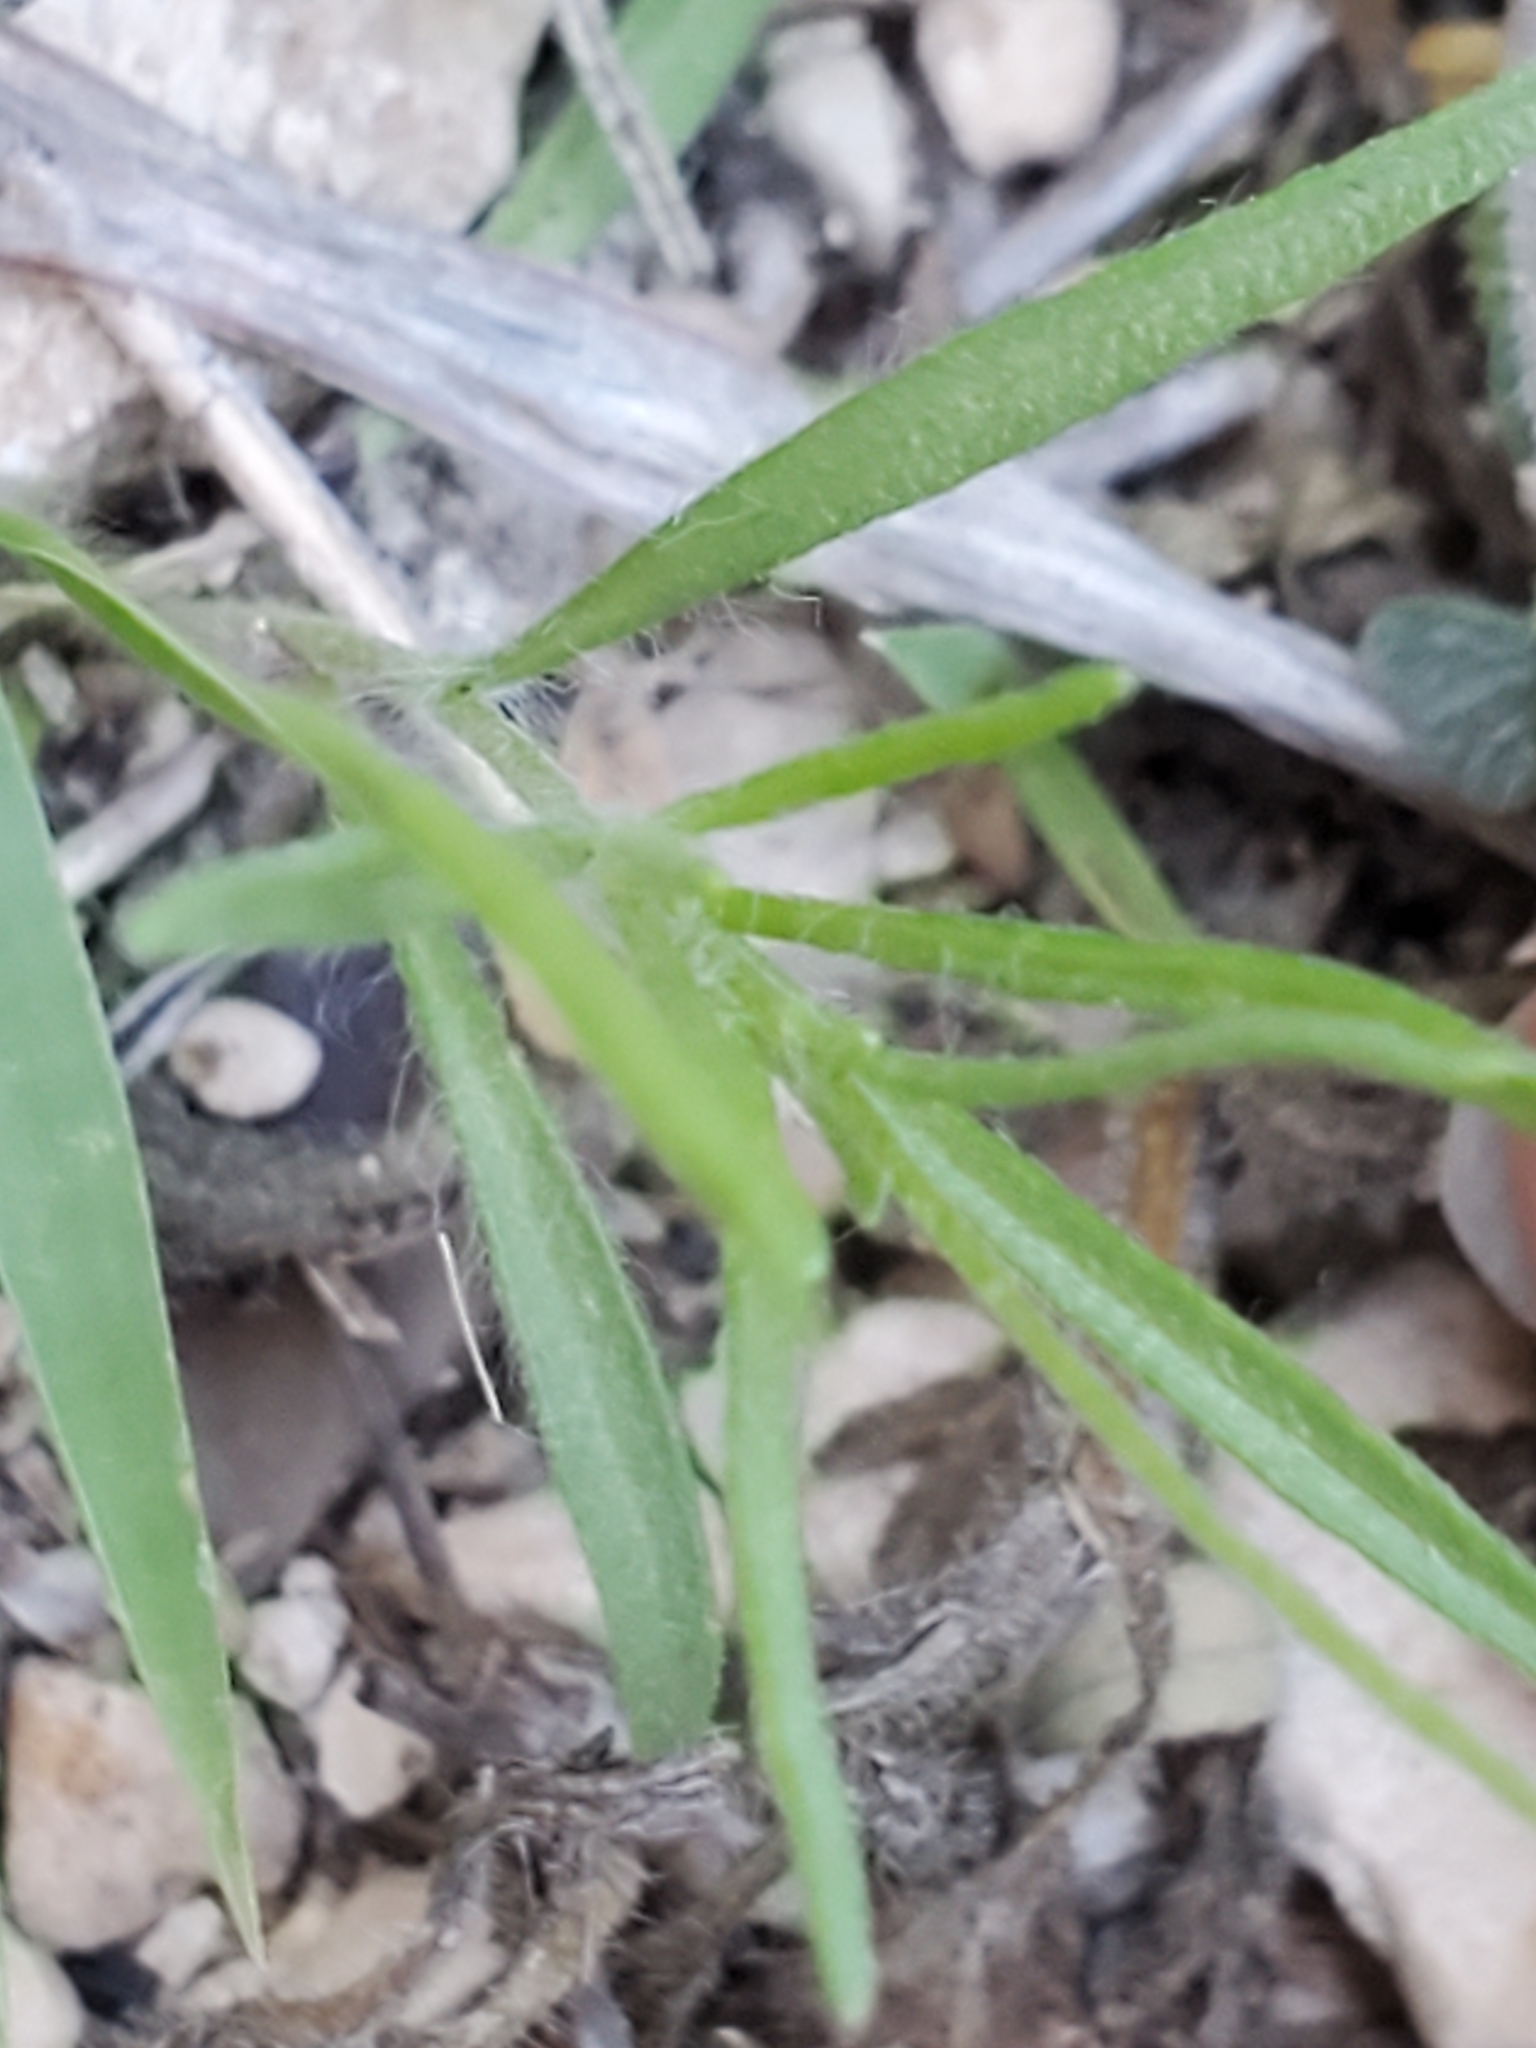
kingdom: Plantae
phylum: Tracheophyta
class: Magnoliopsida
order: Asterales
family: Asteraceae
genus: Tetraneuris
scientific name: Tetraneuris linearifolia
